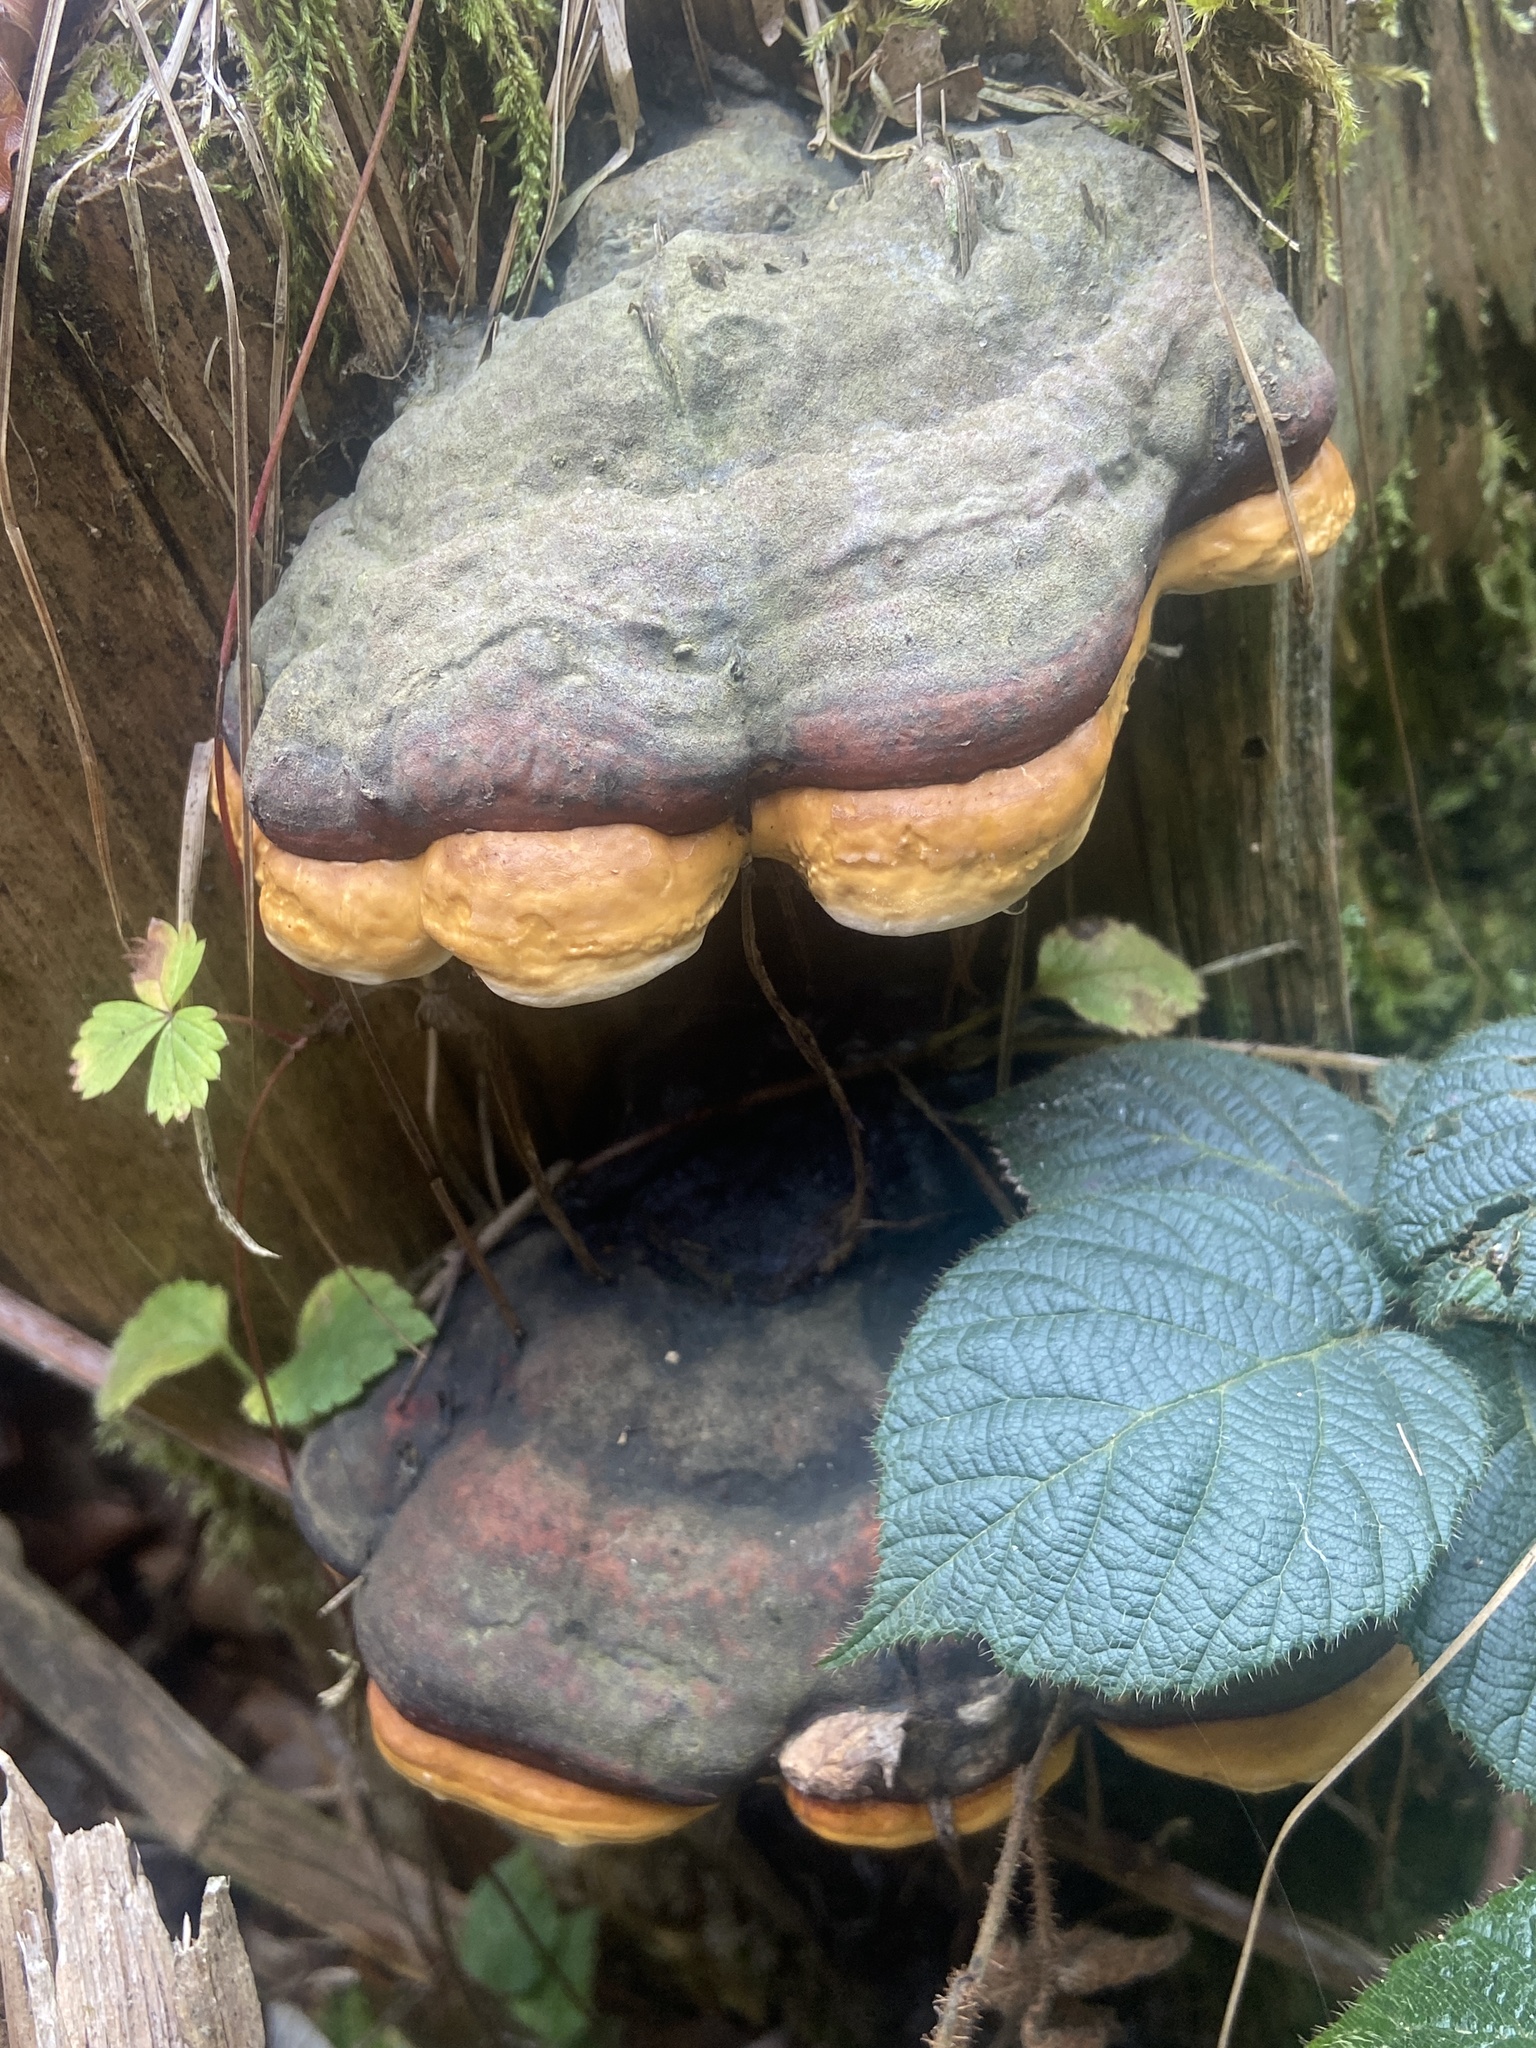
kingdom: Fungi
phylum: Basidiomycota
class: Agaricomycetes
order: Polyporales
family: Fomitopsidaceae
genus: Fomitopsis
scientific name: Fomitopsis pinicola
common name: Red-belted bracket
